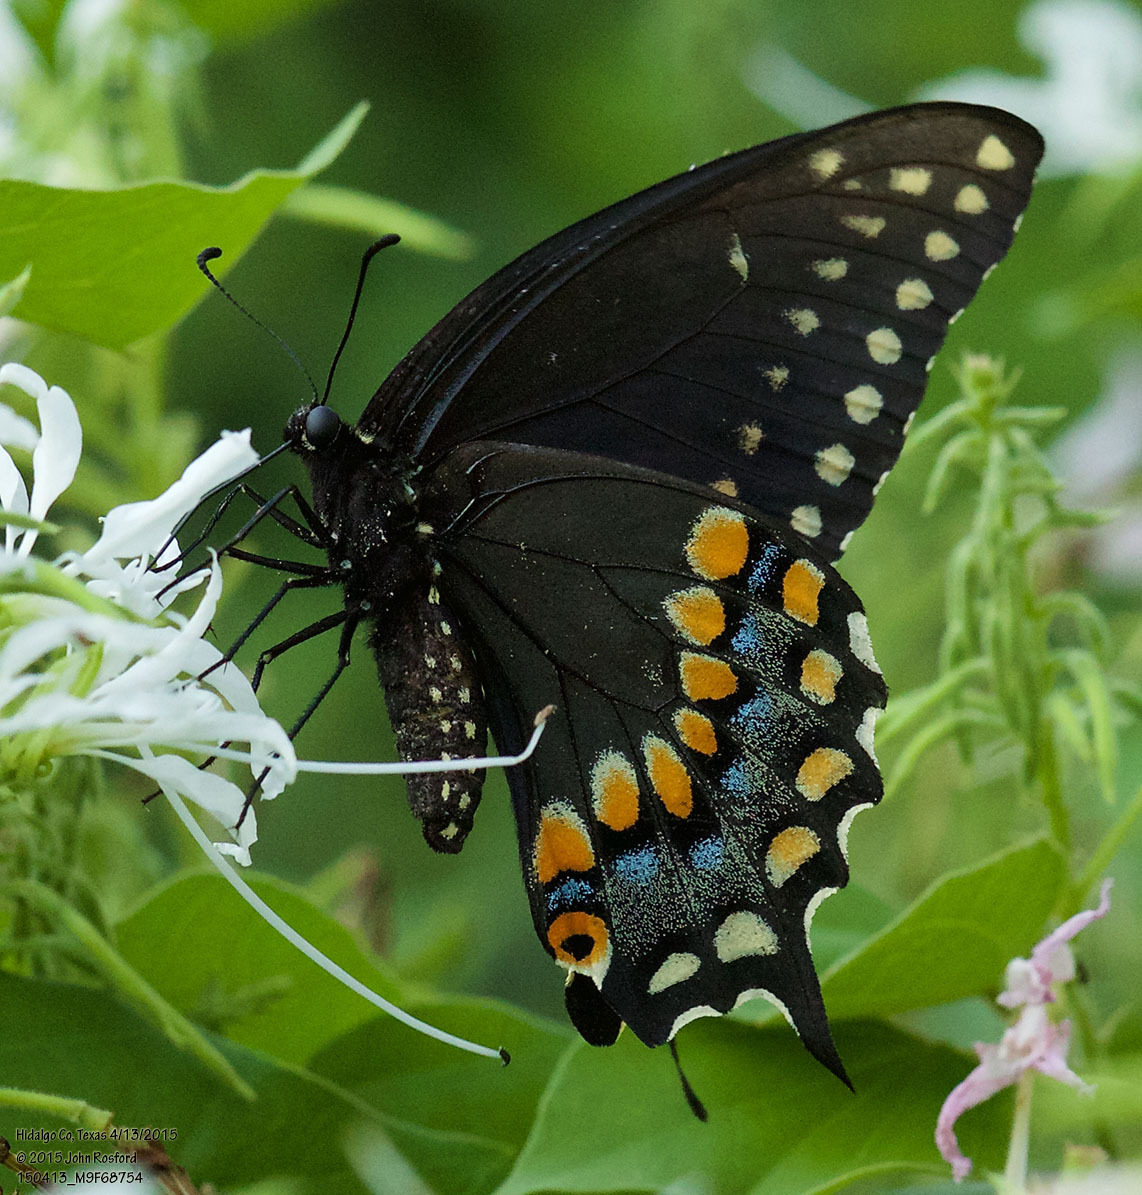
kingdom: Animalia
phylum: Arthropoda
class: Insecta
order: Lepidoptera
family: Papilionidae
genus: Papilio
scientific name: Papilio polyxenes
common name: Black swallowtail
